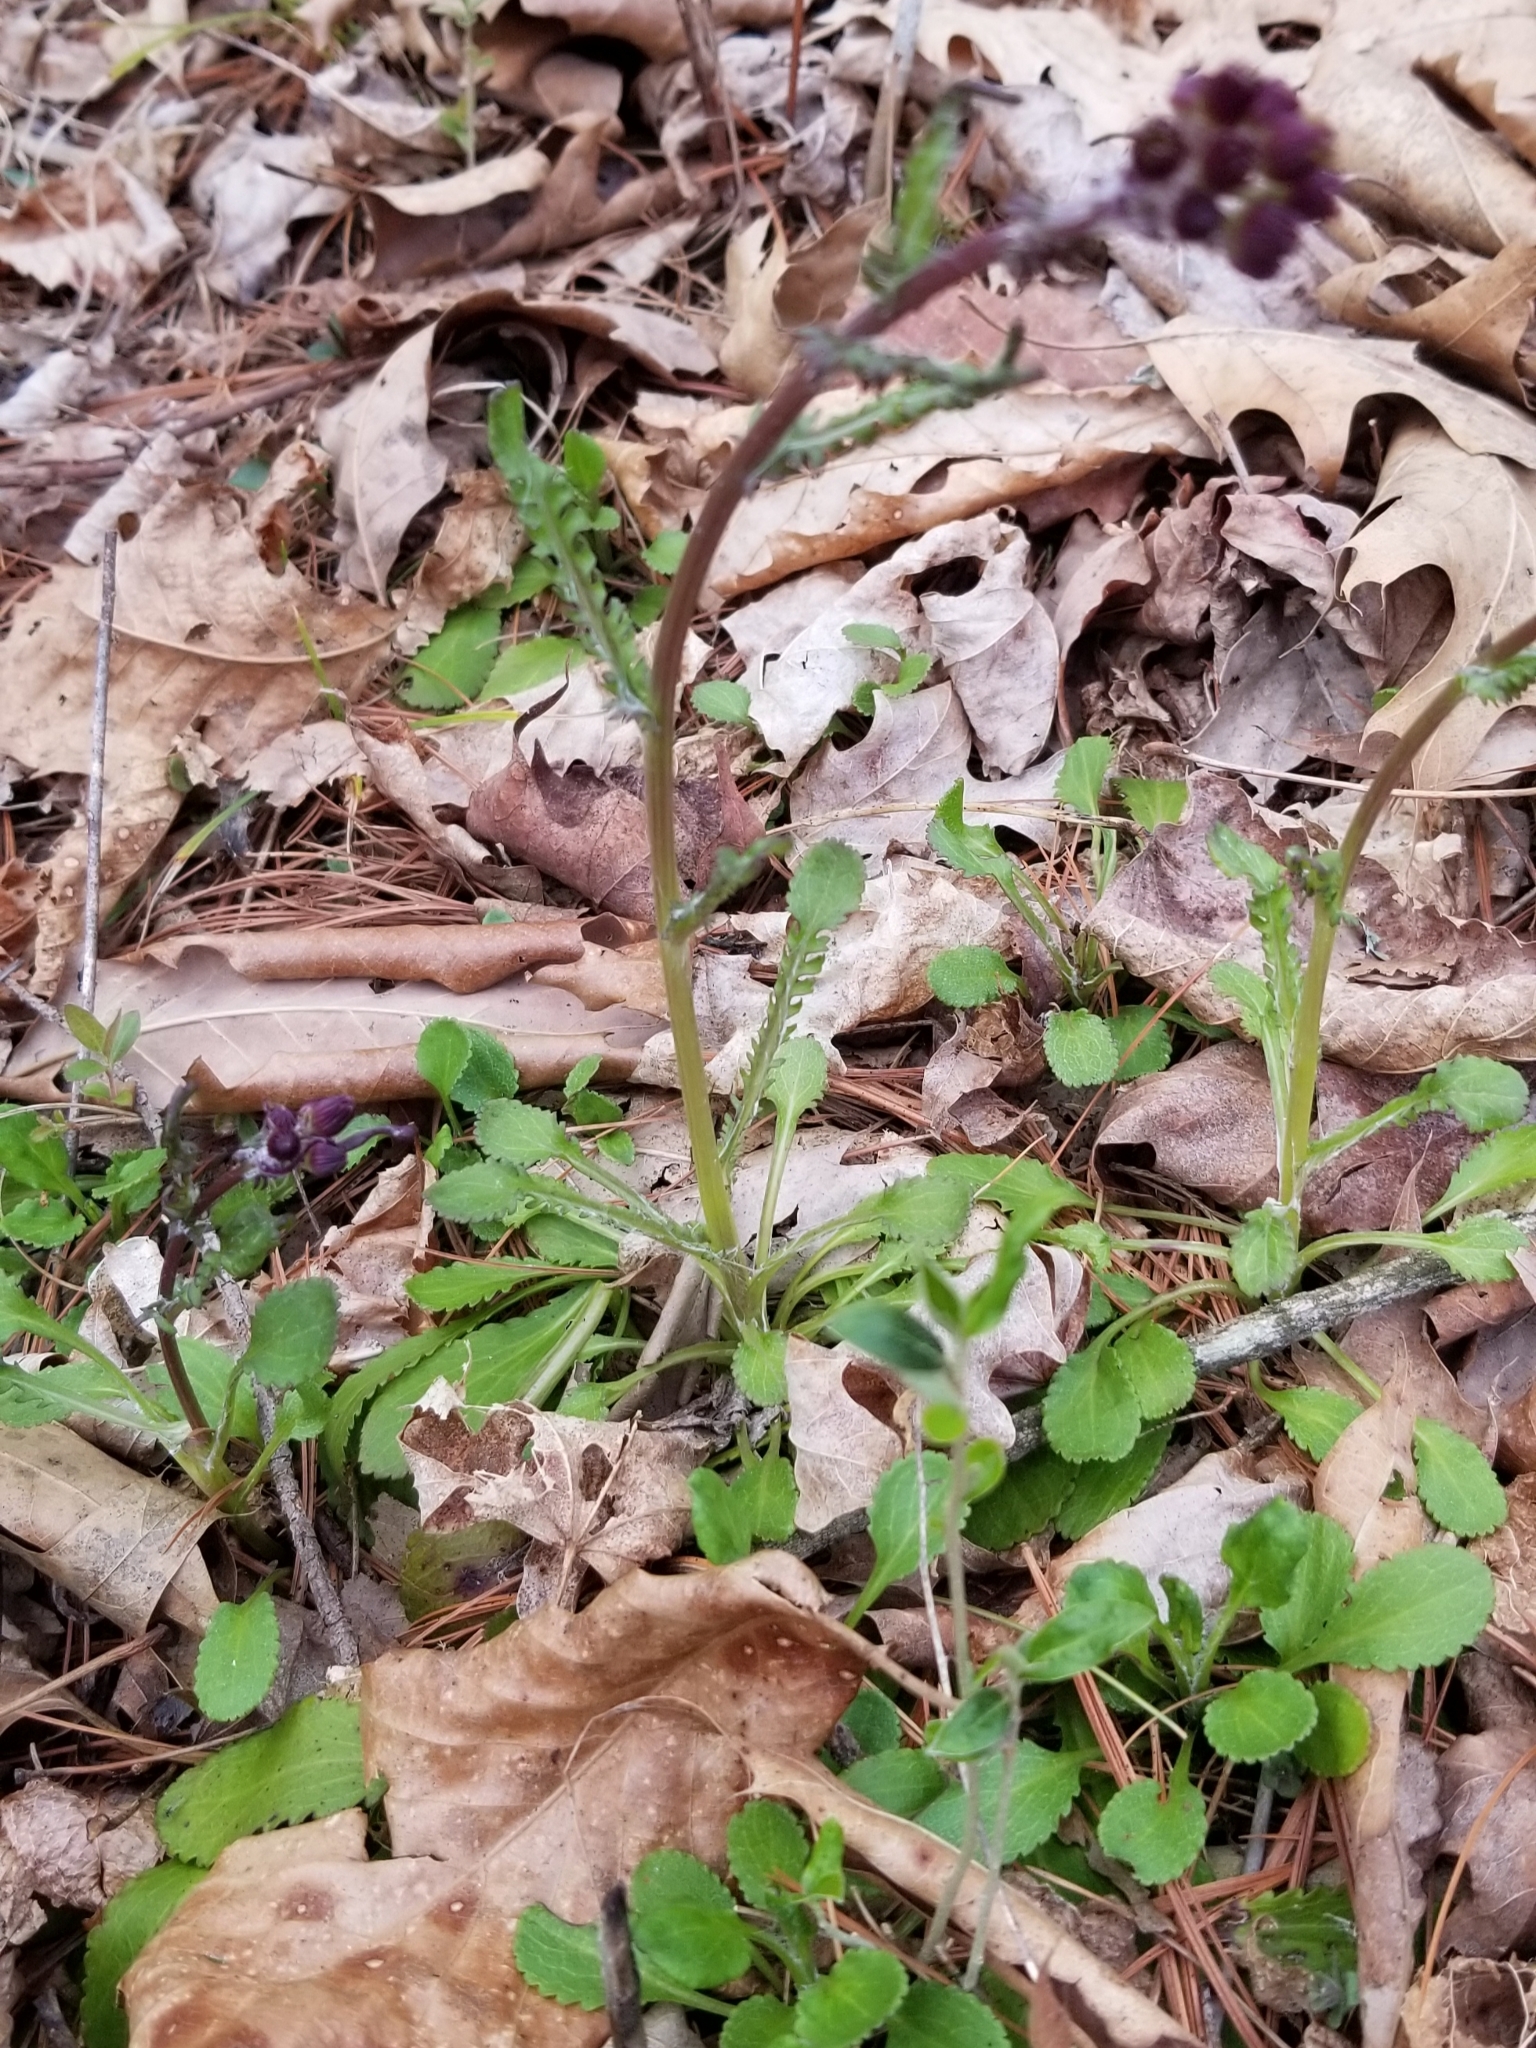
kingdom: Plantae
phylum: Tracheophyta
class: Magnoliopsida
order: Asterales
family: Asteraceae
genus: Packera
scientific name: Packera obovata
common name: Round-leaf ragwort
